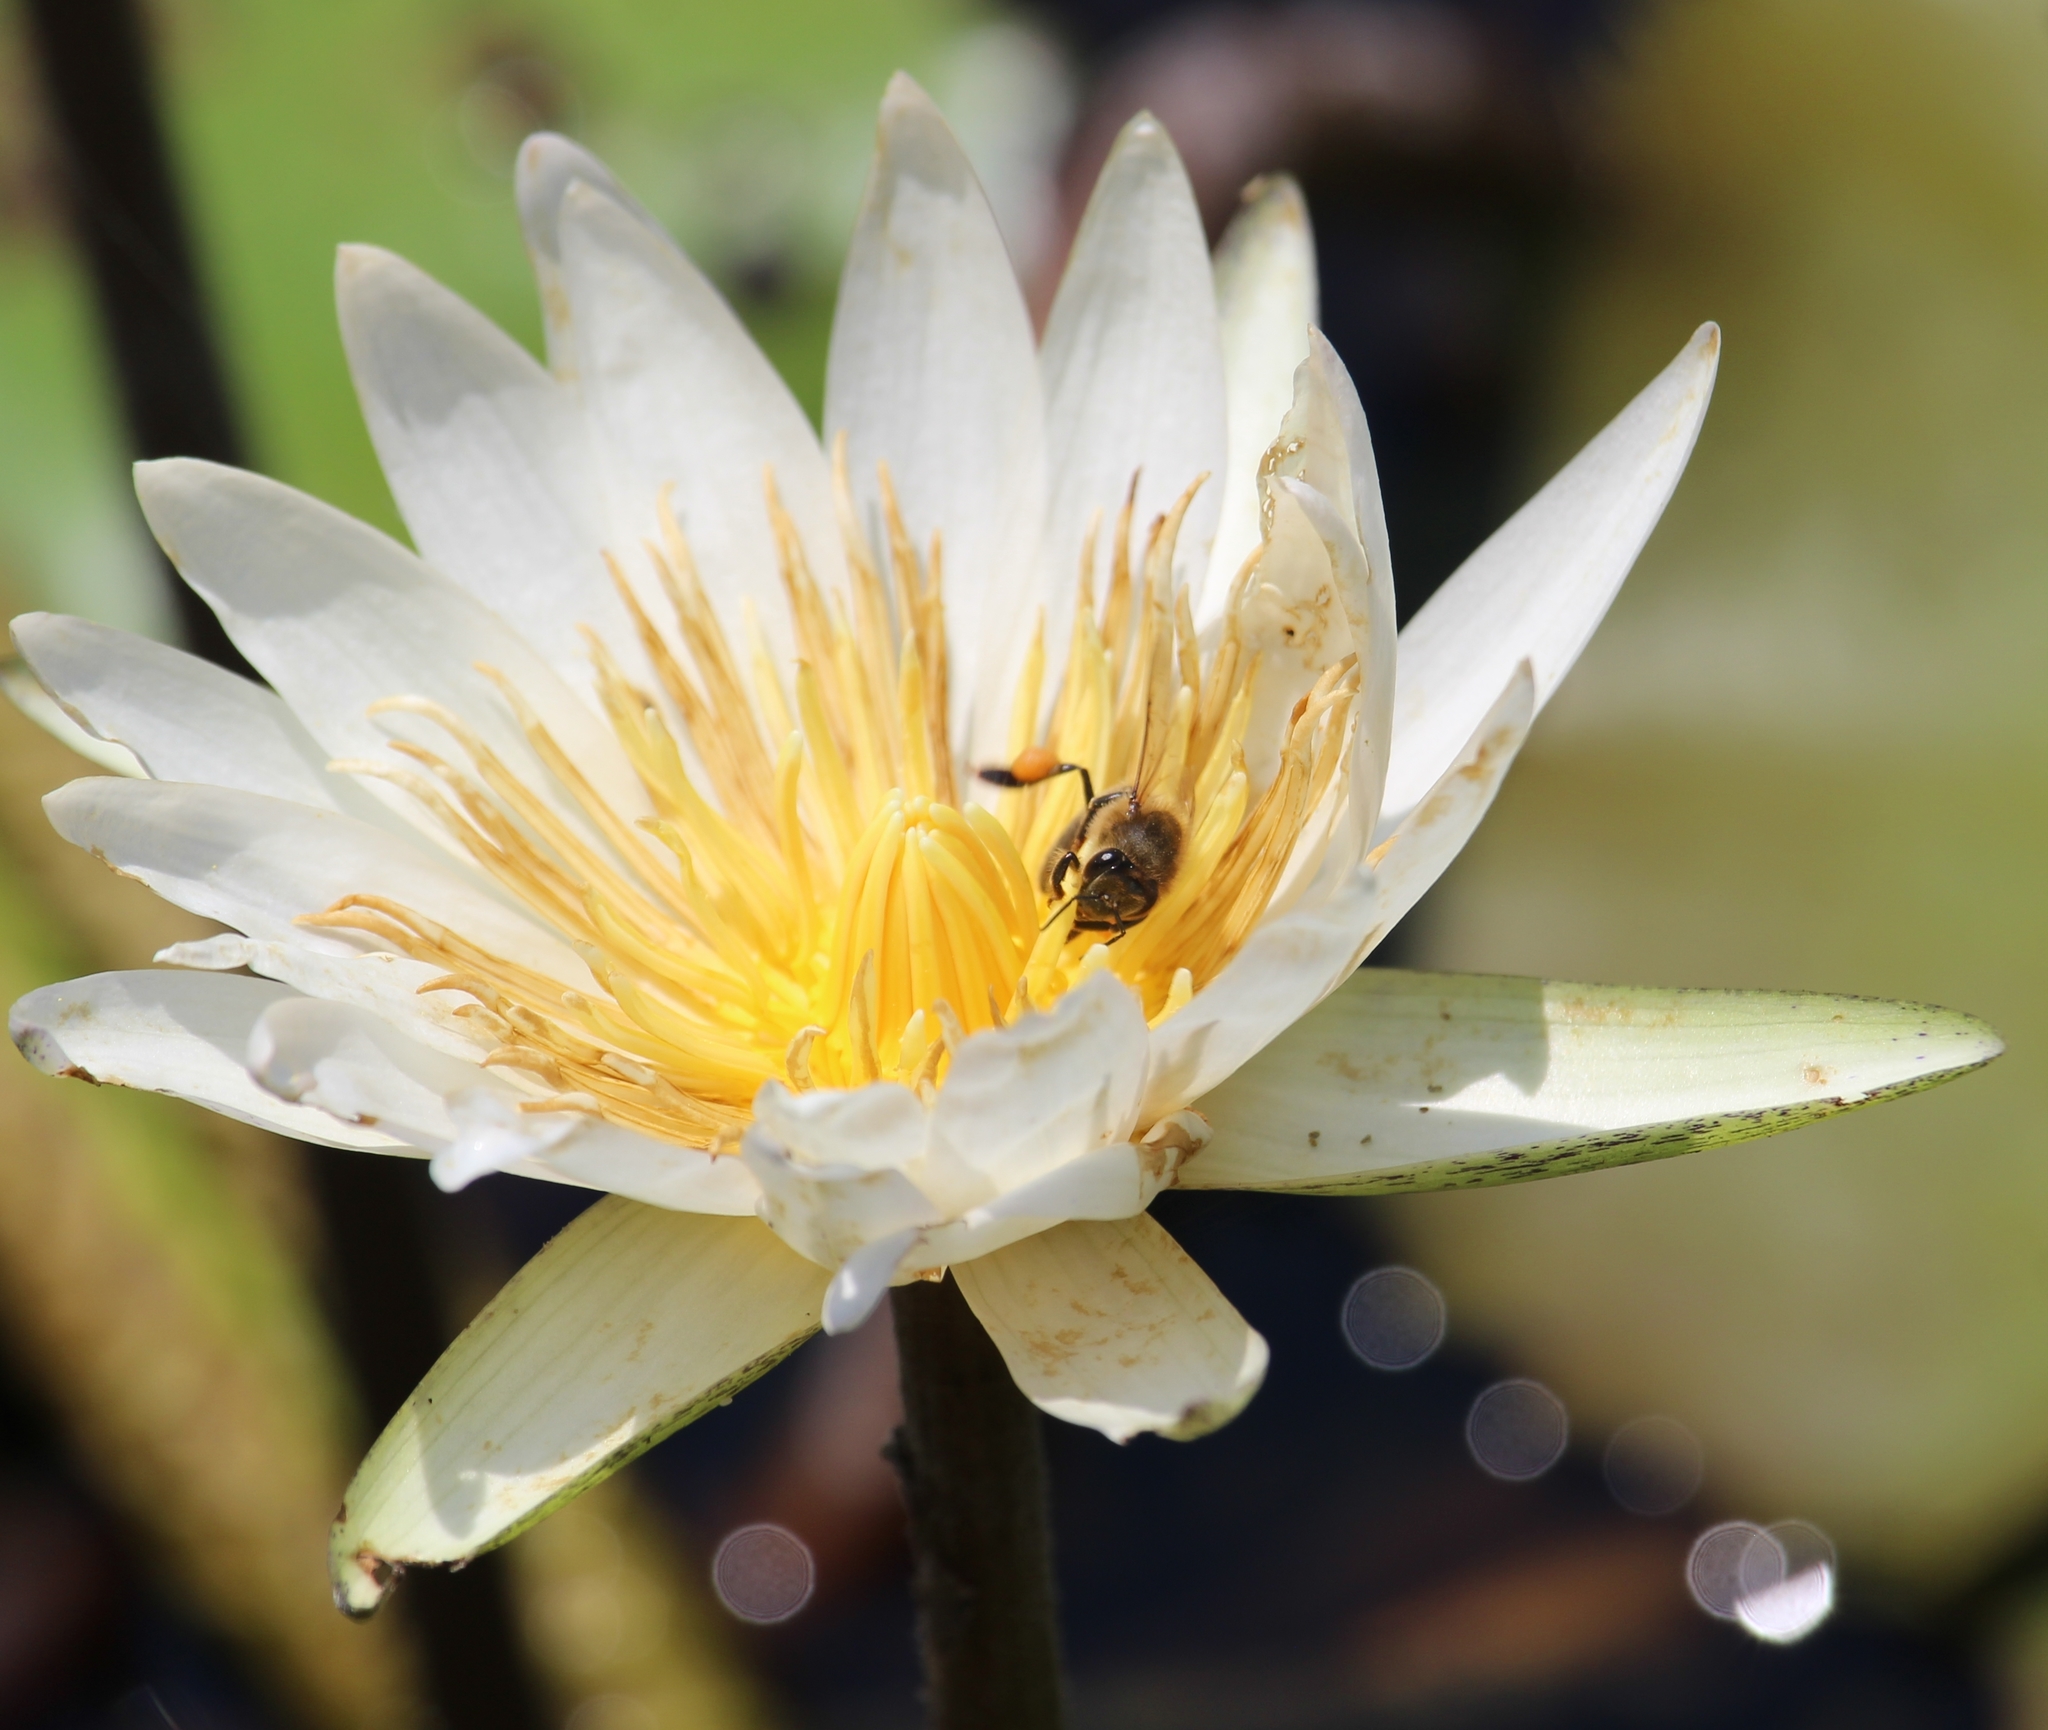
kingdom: Animalia
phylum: Arthropoda
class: Insecta
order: Hymenoptera
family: Apidae
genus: Apis
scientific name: Apis mellifera
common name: Honey bee
